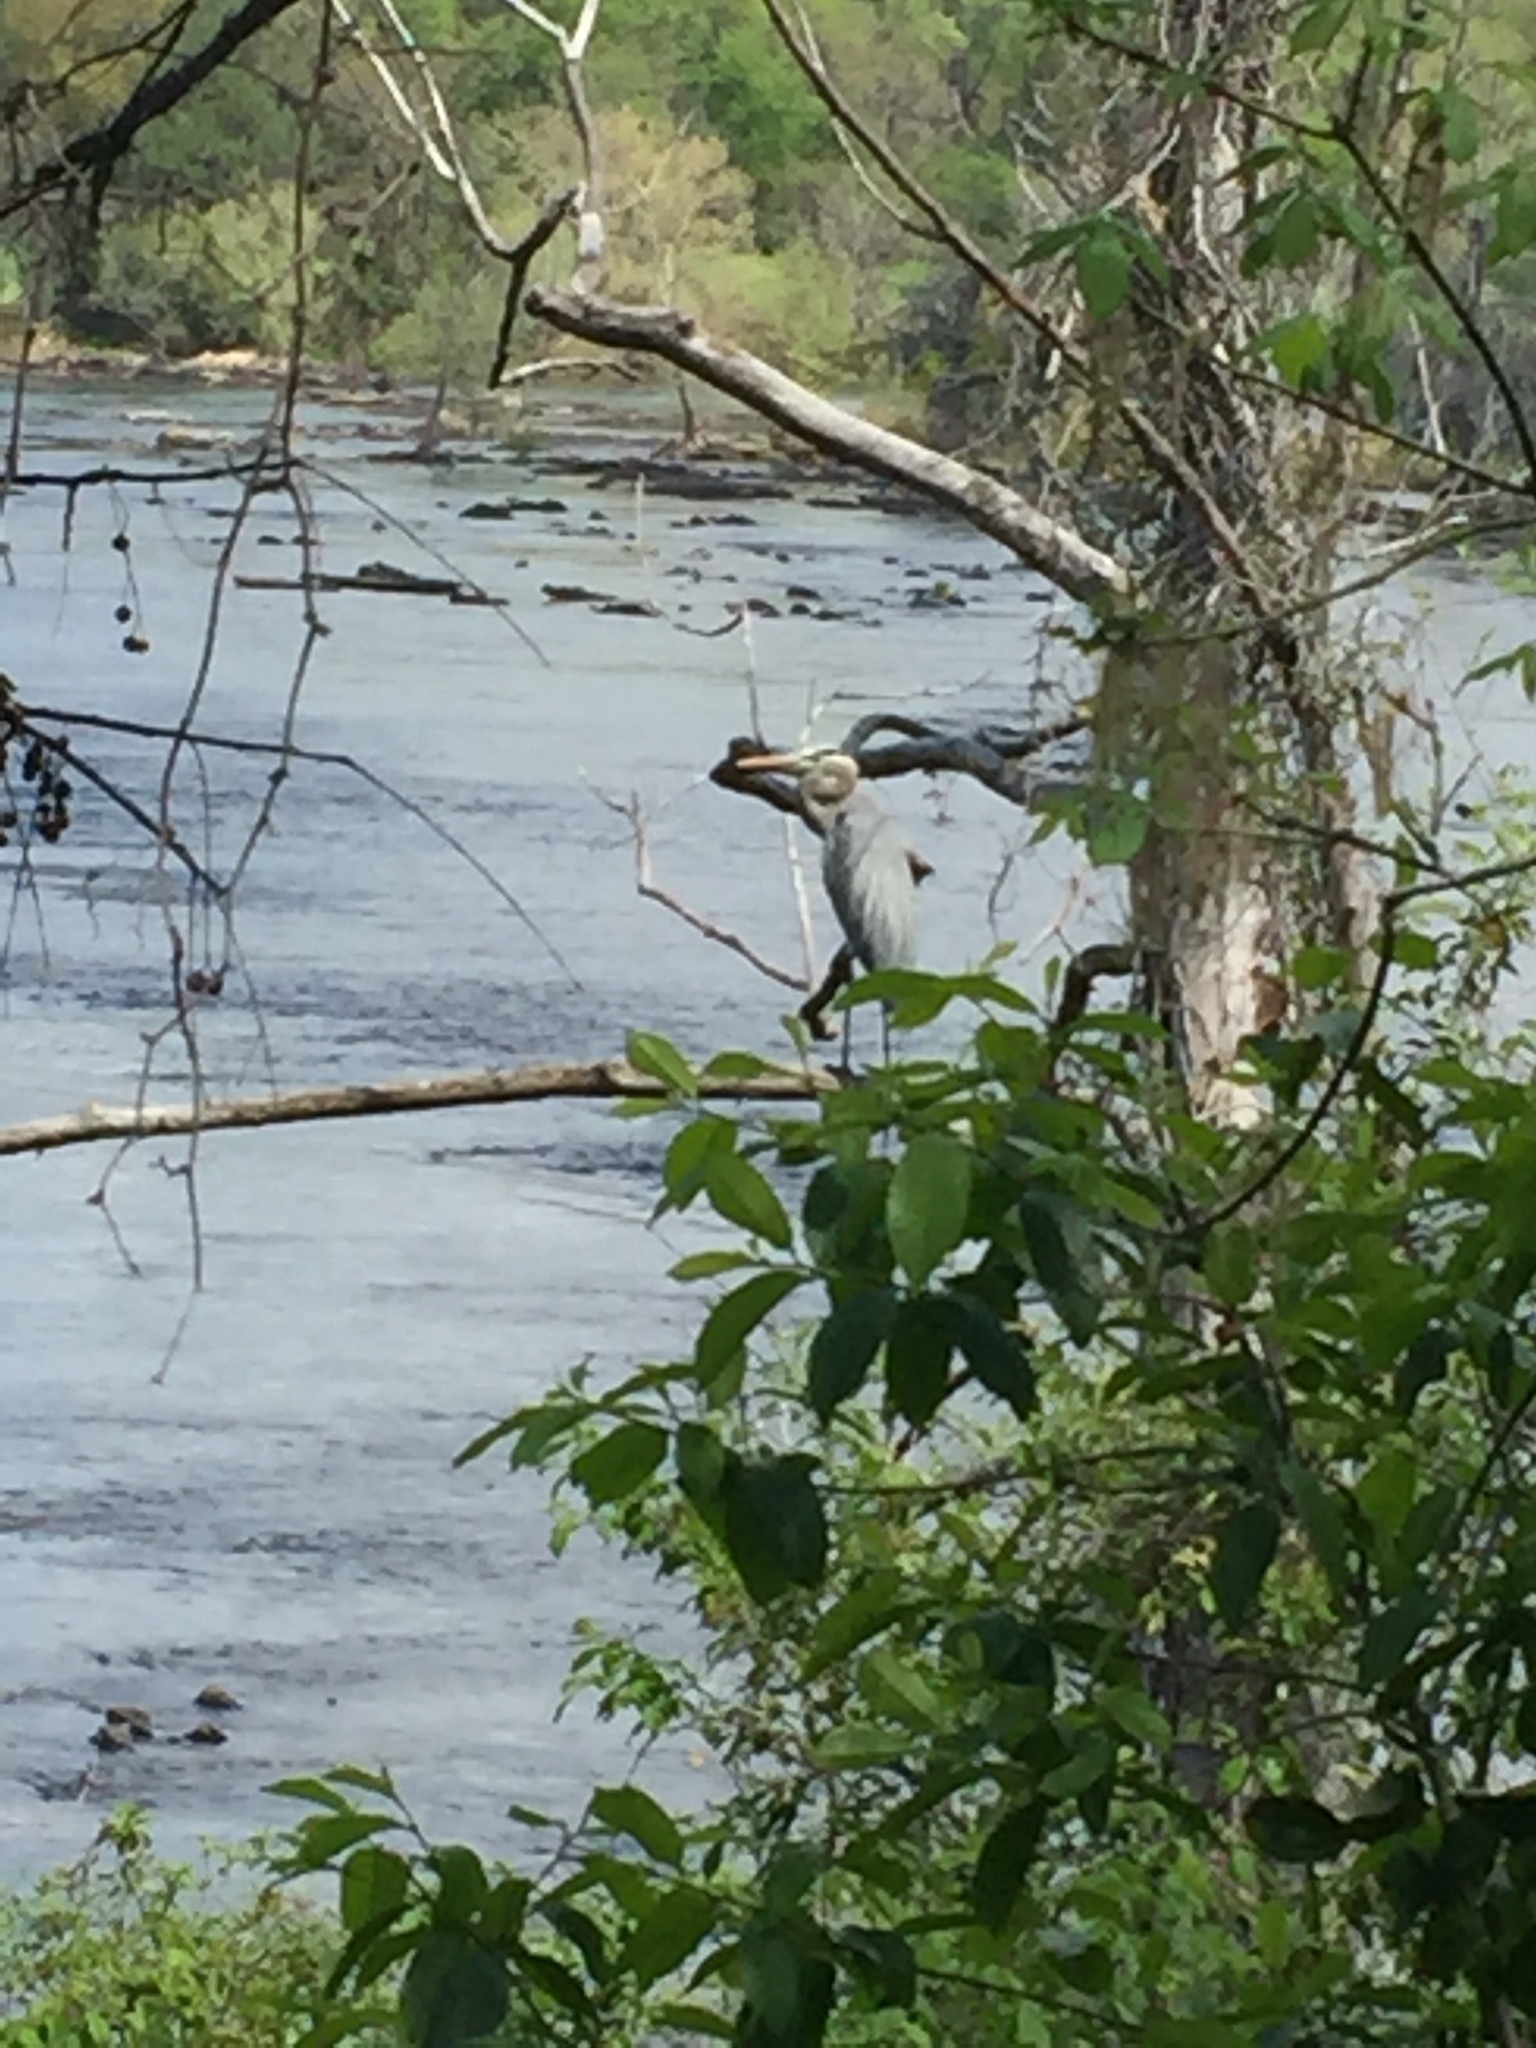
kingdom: Animalia
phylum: Chordata
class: Aves
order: Pelecaniformes
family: Ardeidae
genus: Ardea
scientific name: Ardea herodias
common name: Great blue heron
